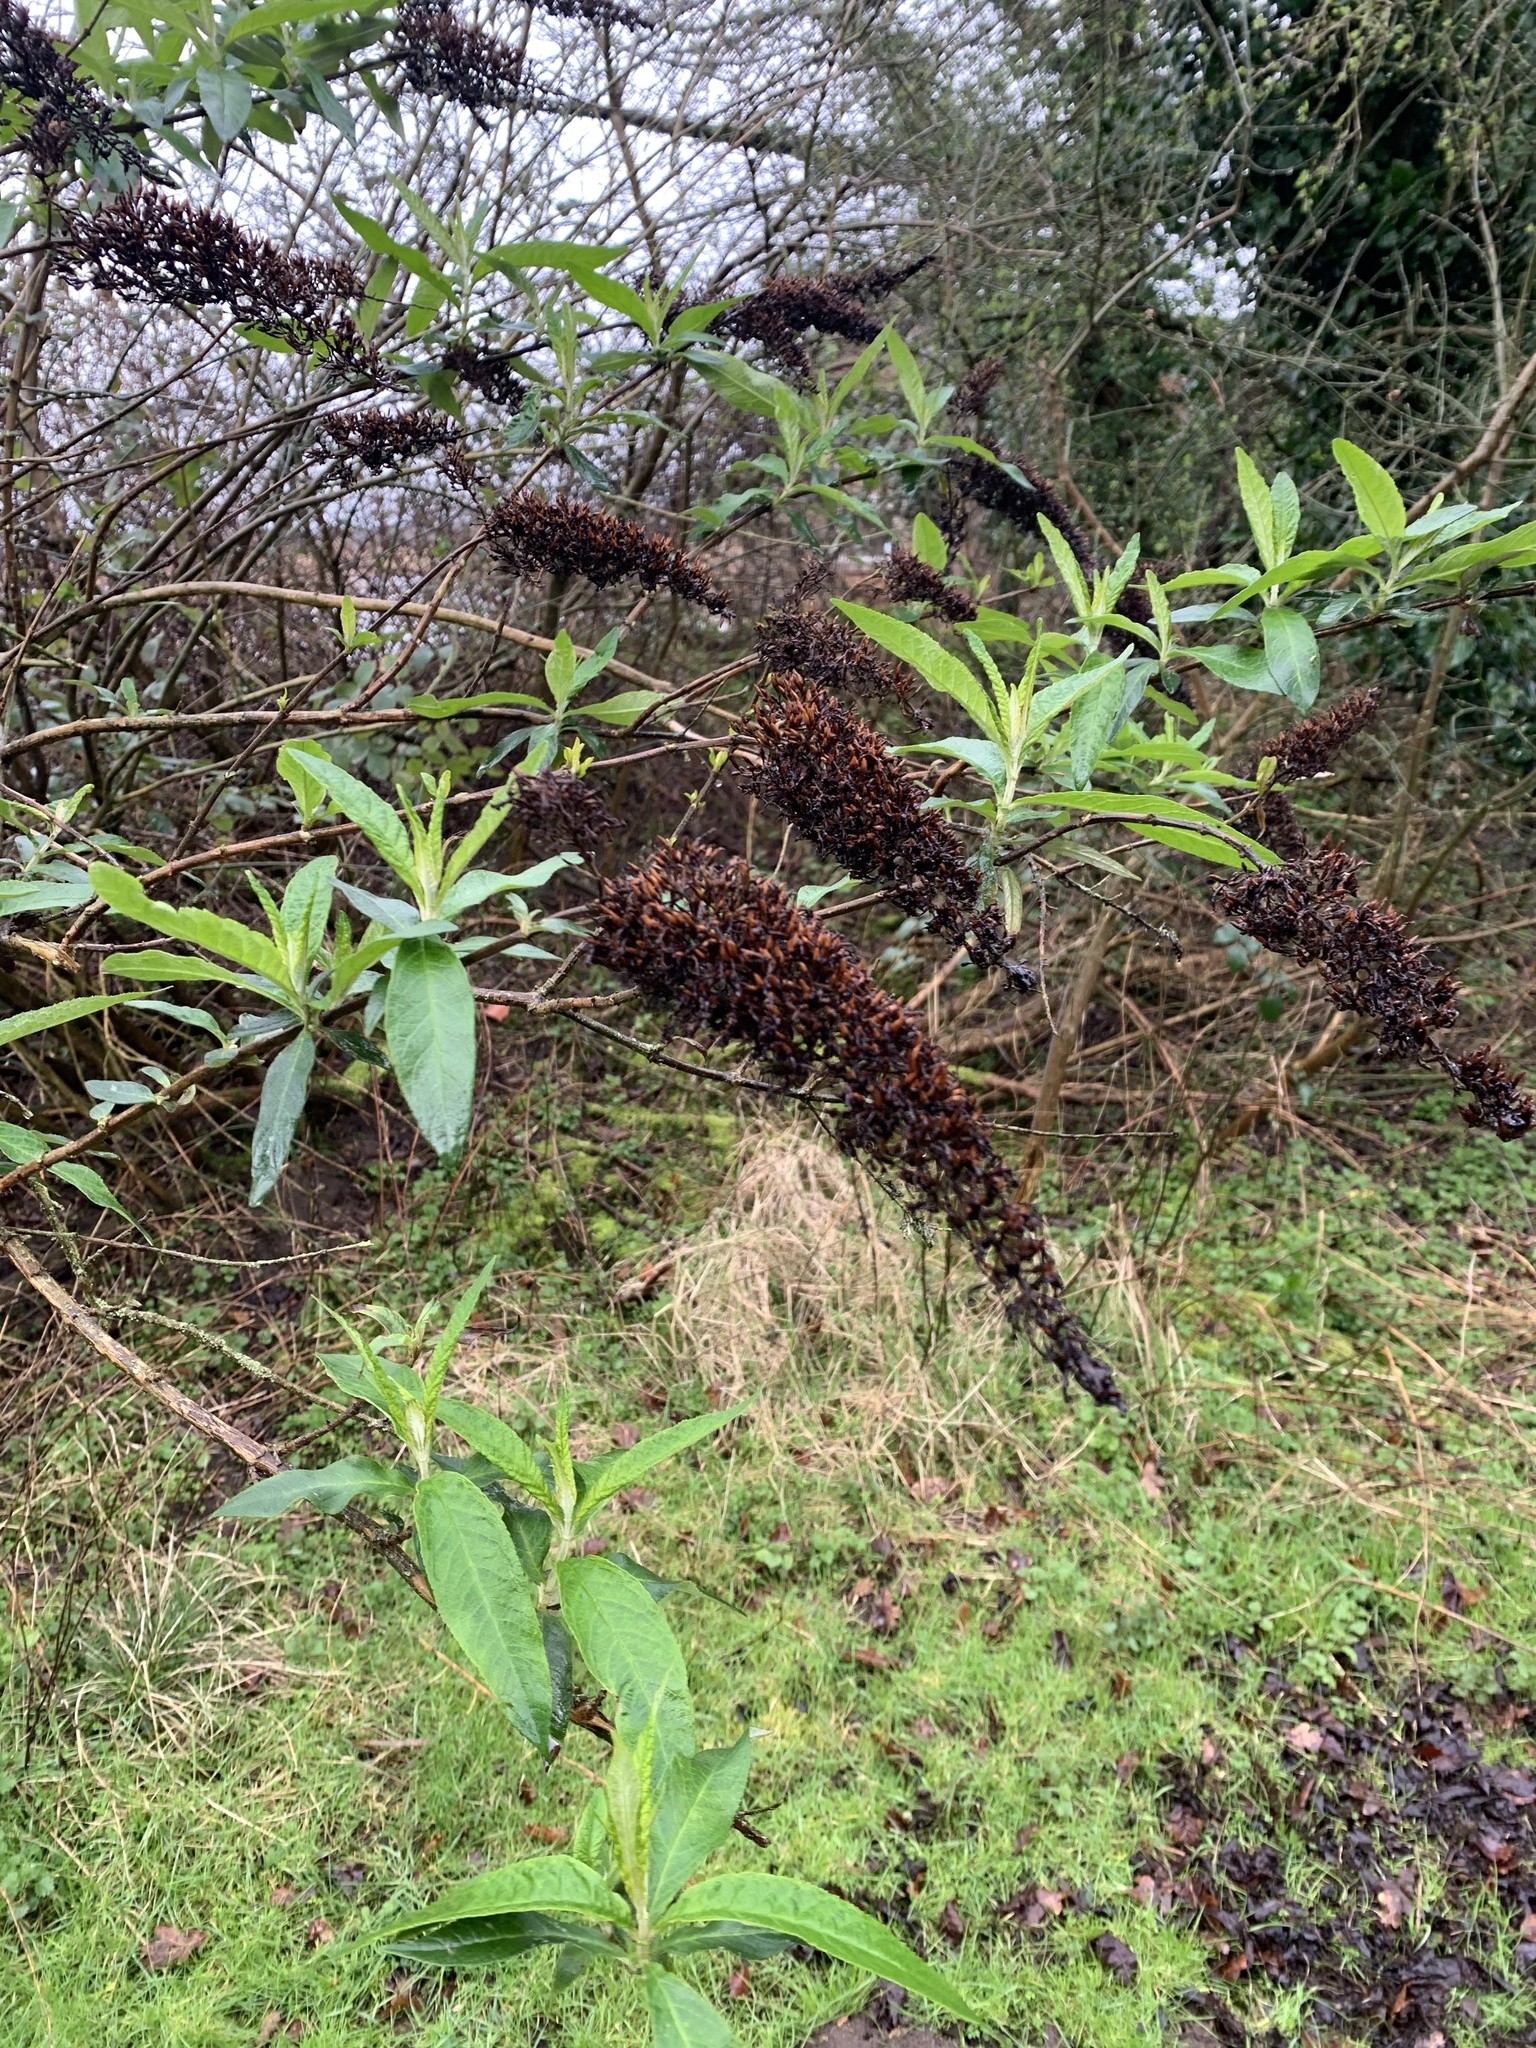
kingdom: Plantae
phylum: Tracheophyta
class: Magnoliopsida
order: Lamiales
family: Scrophulariaceae
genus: Buddleja
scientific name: Buddleja davidii
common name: Butterfly-bush
